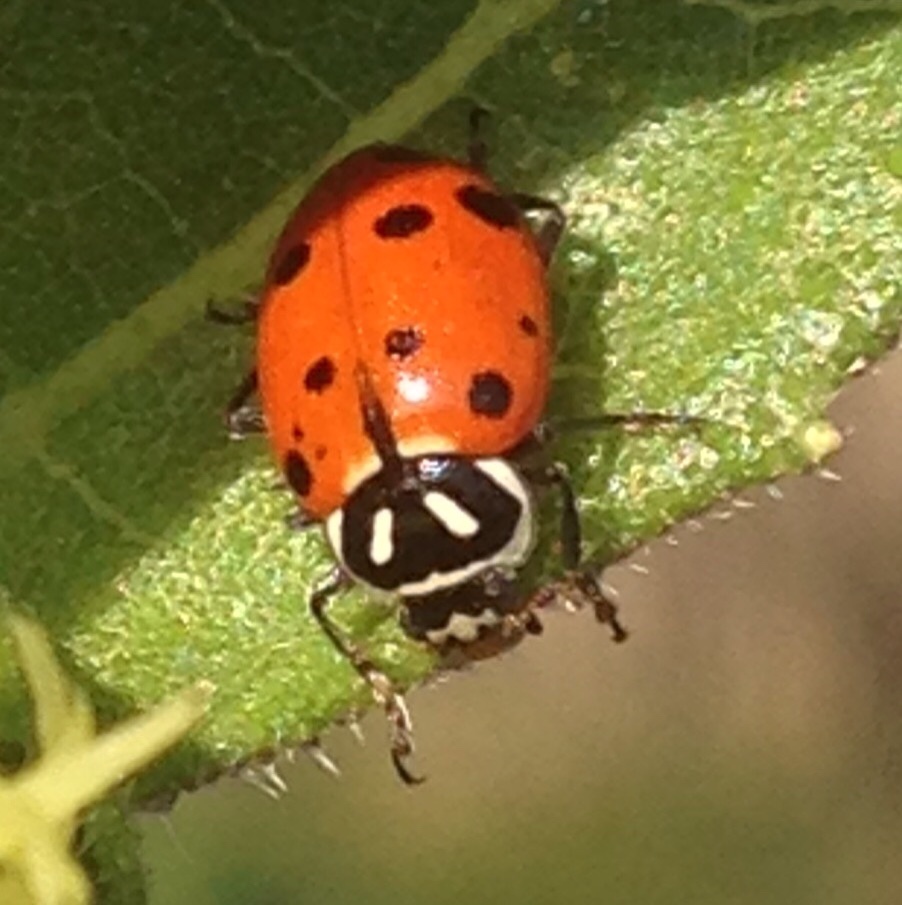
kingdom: Animalia
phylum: Arthropoda
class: Insecta
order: Coleoptera
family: Coccinellidae
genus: Hippodamia
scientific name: Hippodamia convergens
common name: Convergent lady beetle
